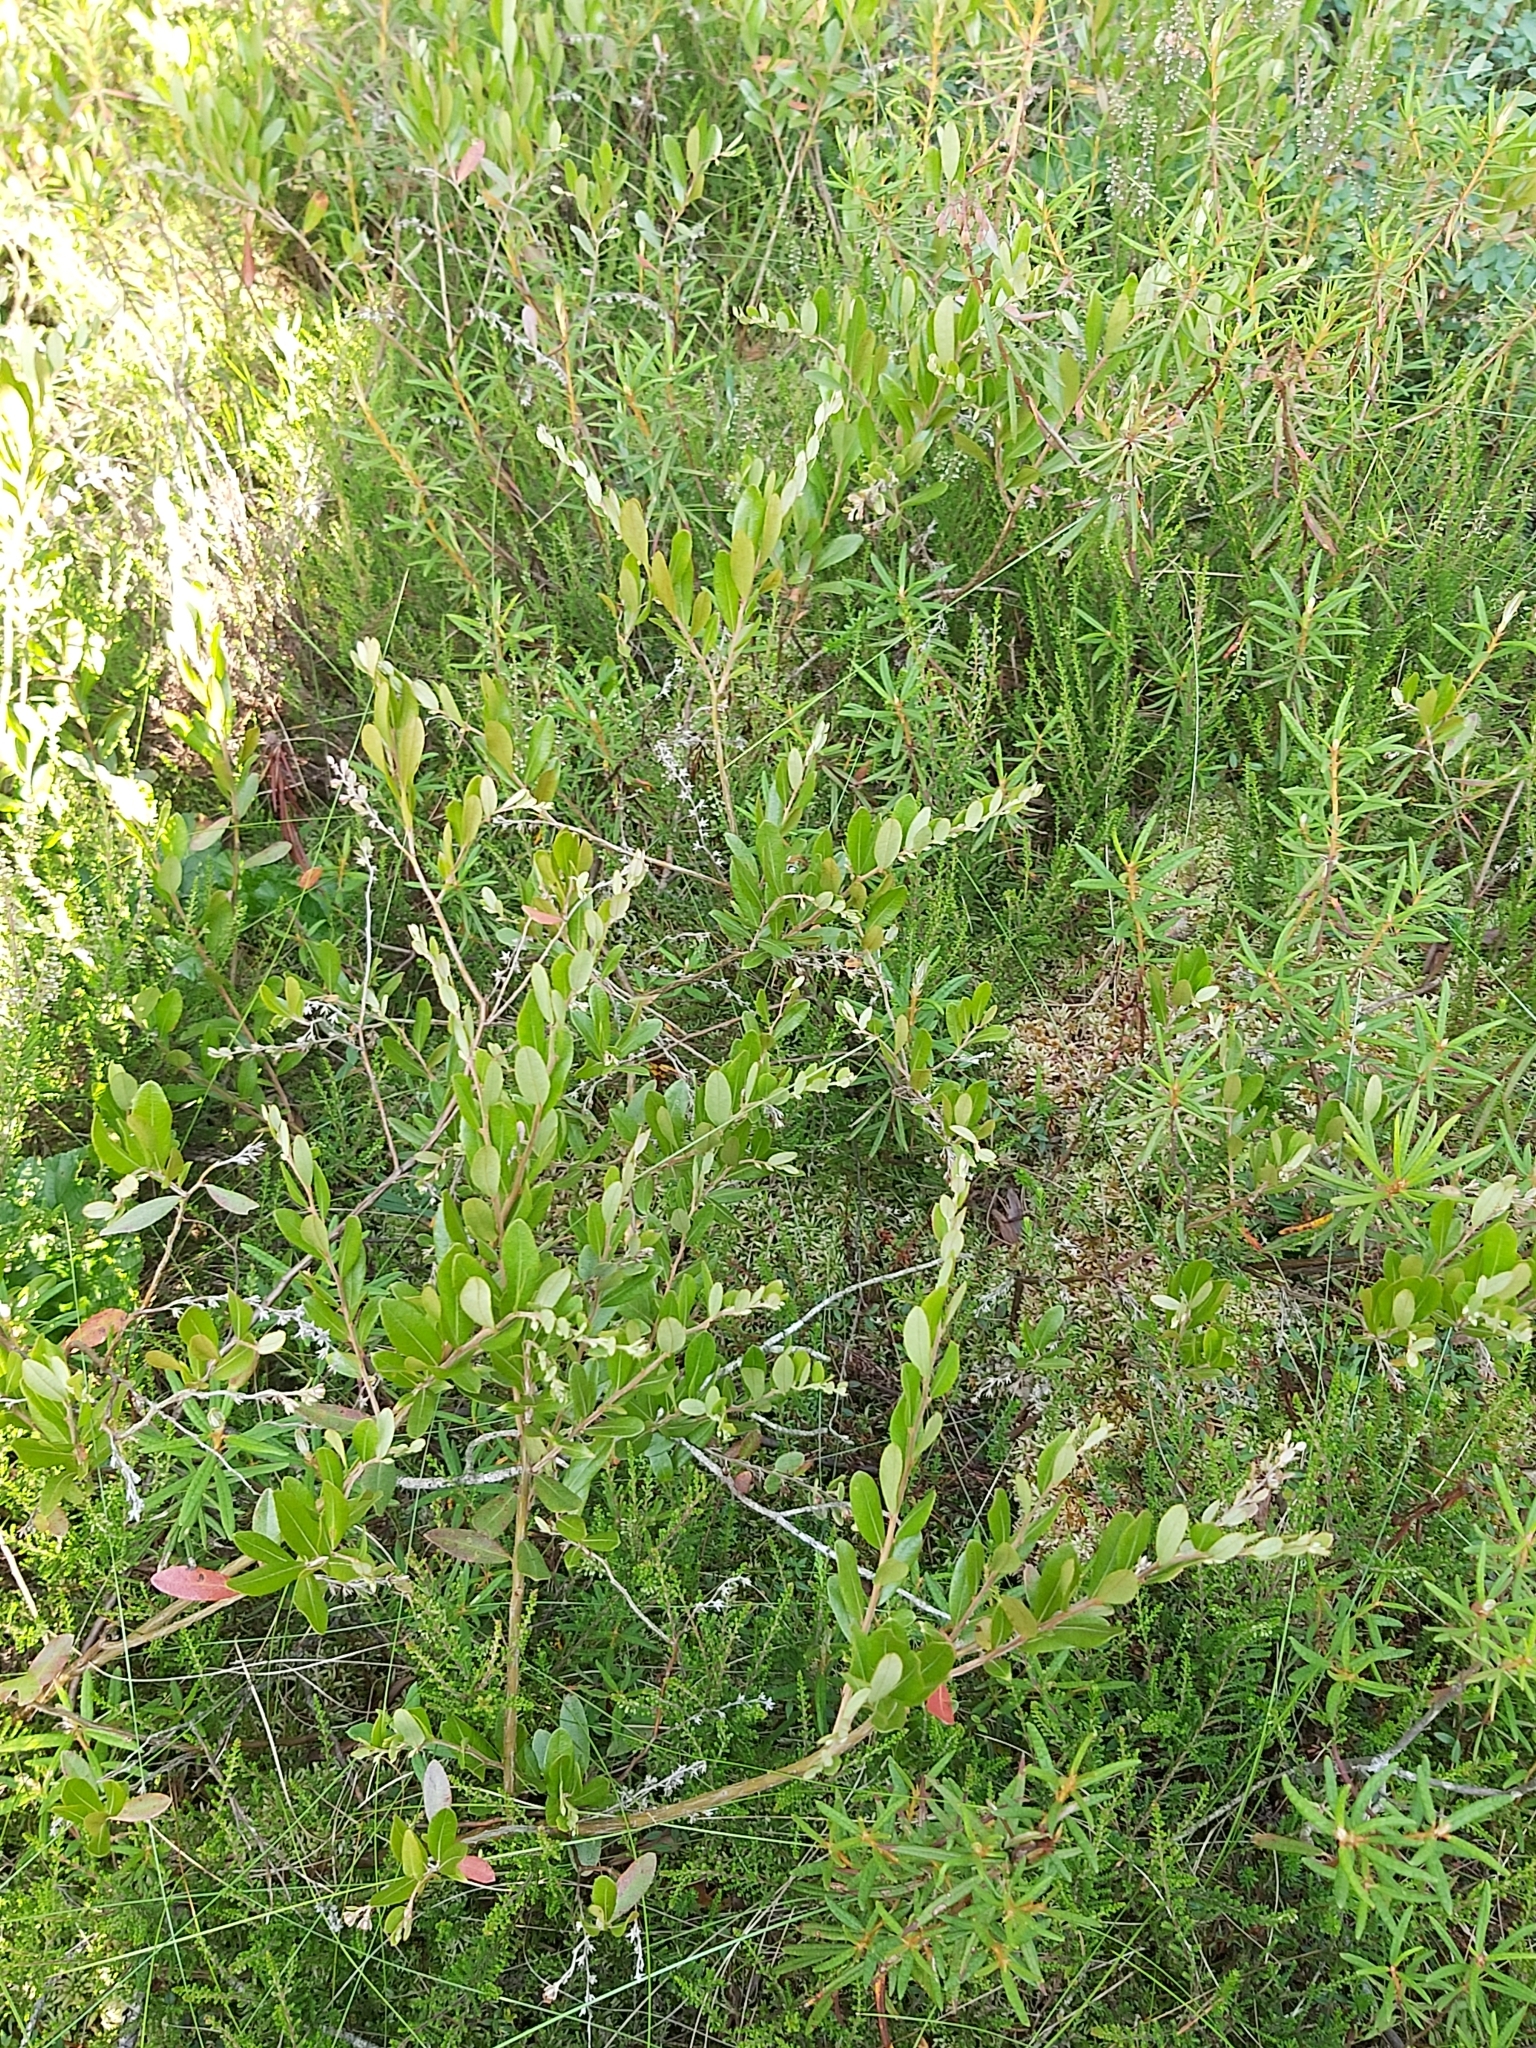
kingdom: Plantae
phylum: Tracheophyta
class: Magnoliopsida
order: Ericales
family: Ericaceae
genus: Chamaedaphne
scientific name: Chamaedaphne calyculata
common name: Leatherleaf
